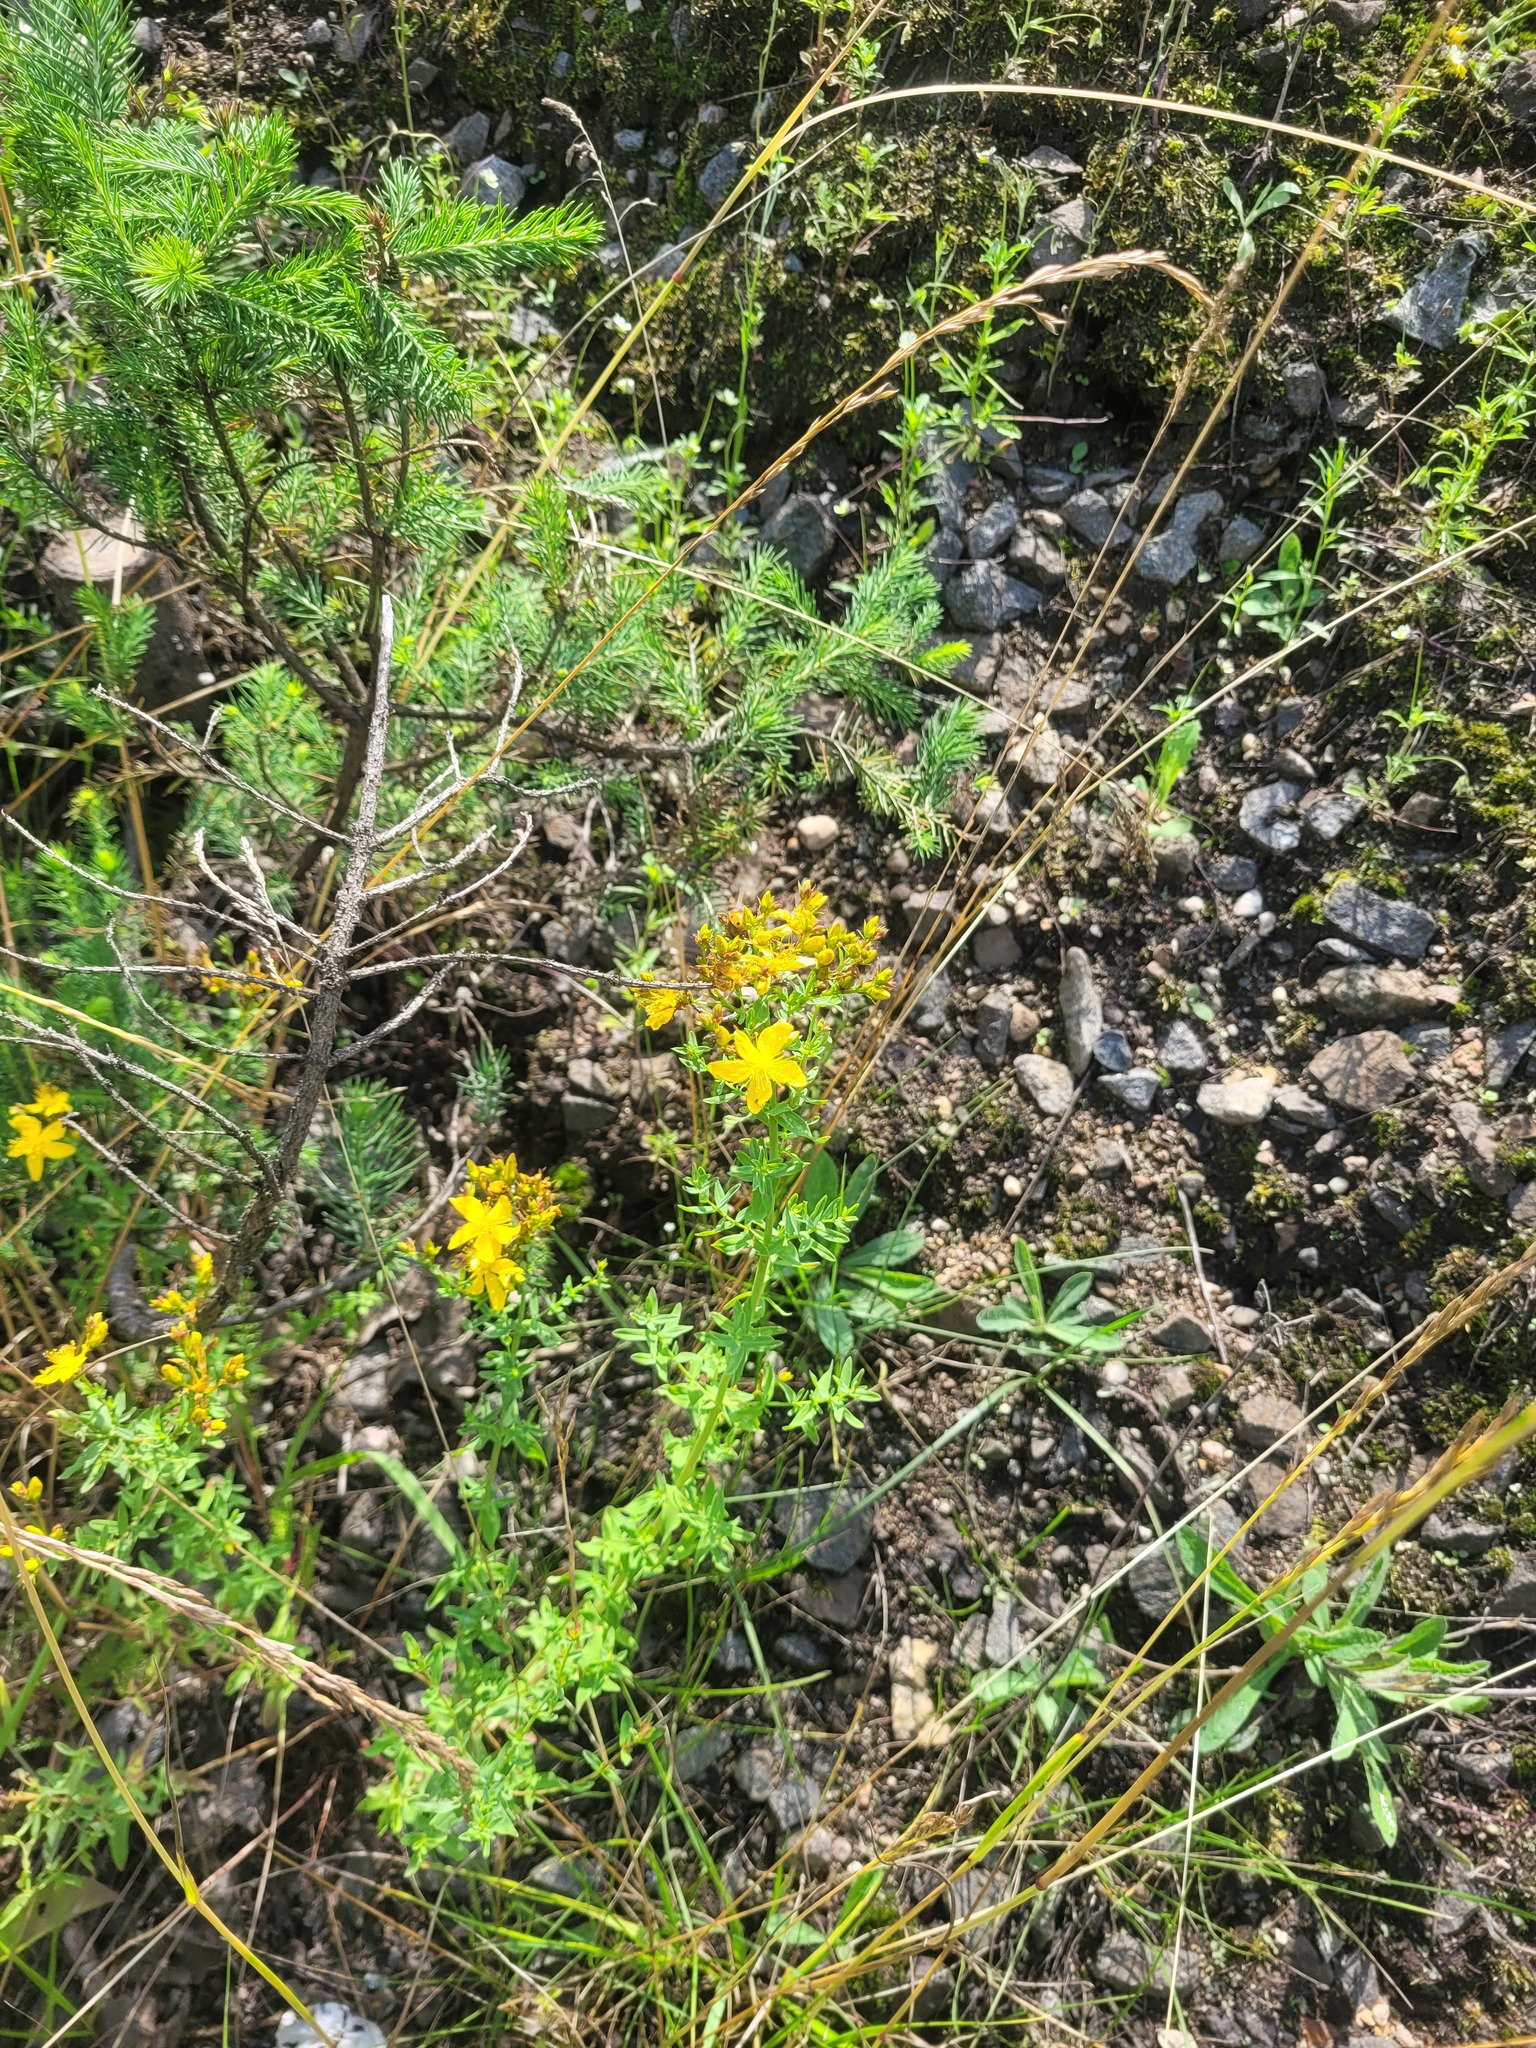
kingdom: Plantae
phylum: Tracheophyta
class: Magnoliopsida
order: Malpighiales
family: Hypericaceae
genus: Hypericum
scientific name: Hypericum perforatum
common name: Common st. johnswort
